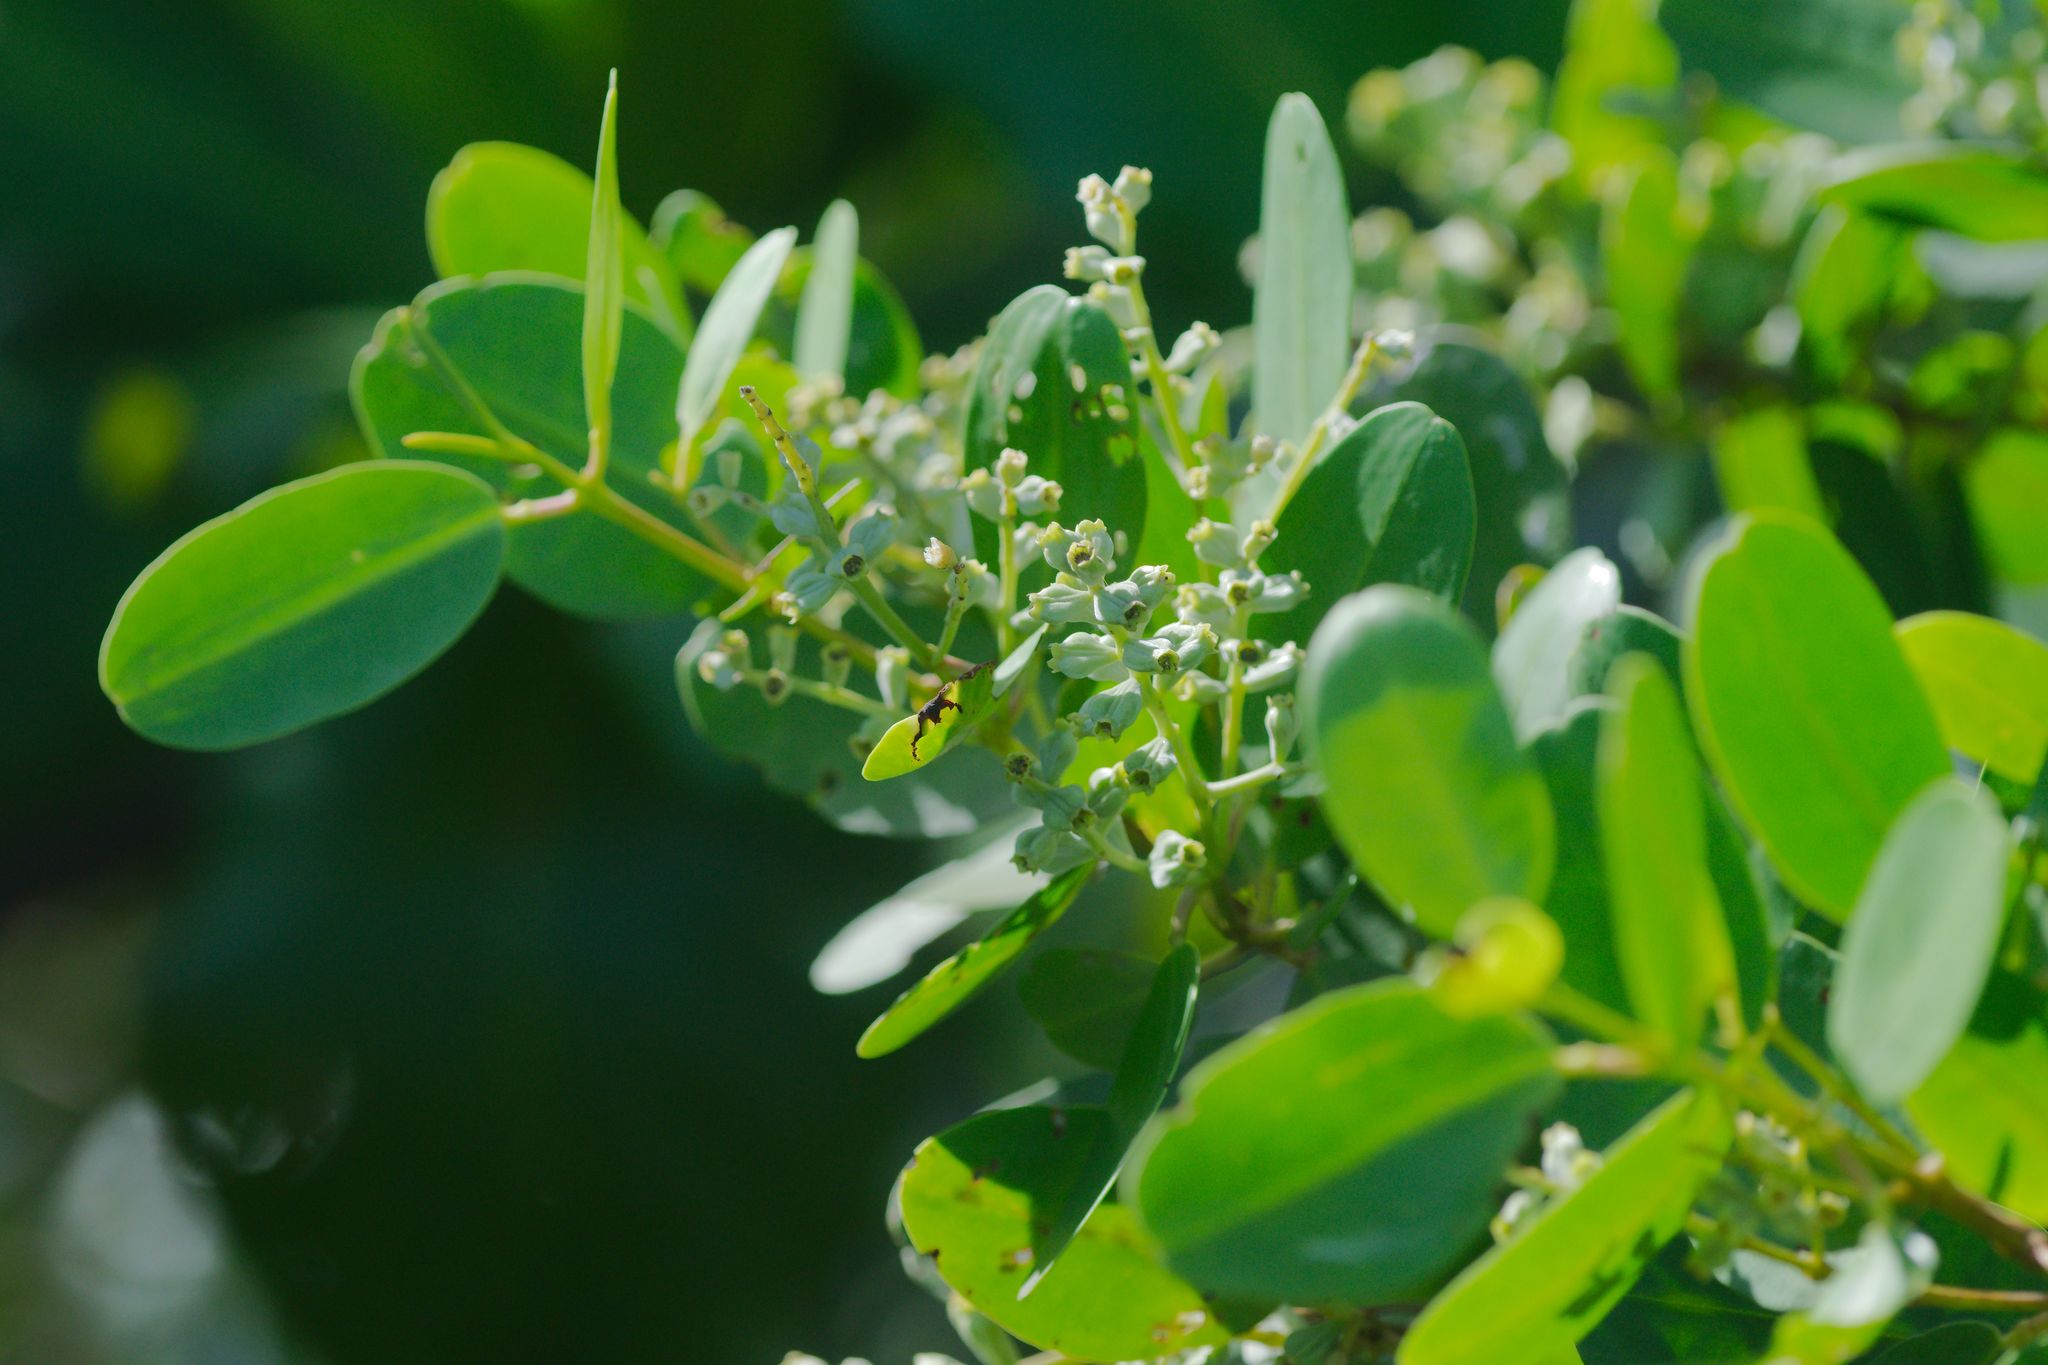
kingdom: Plantae
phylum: Tracheophyta
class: Magnoliopsida
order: Myrtales
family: Combretaceae
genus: Laguncularia
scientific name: Laguncularia racemosa
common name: White mangrove
